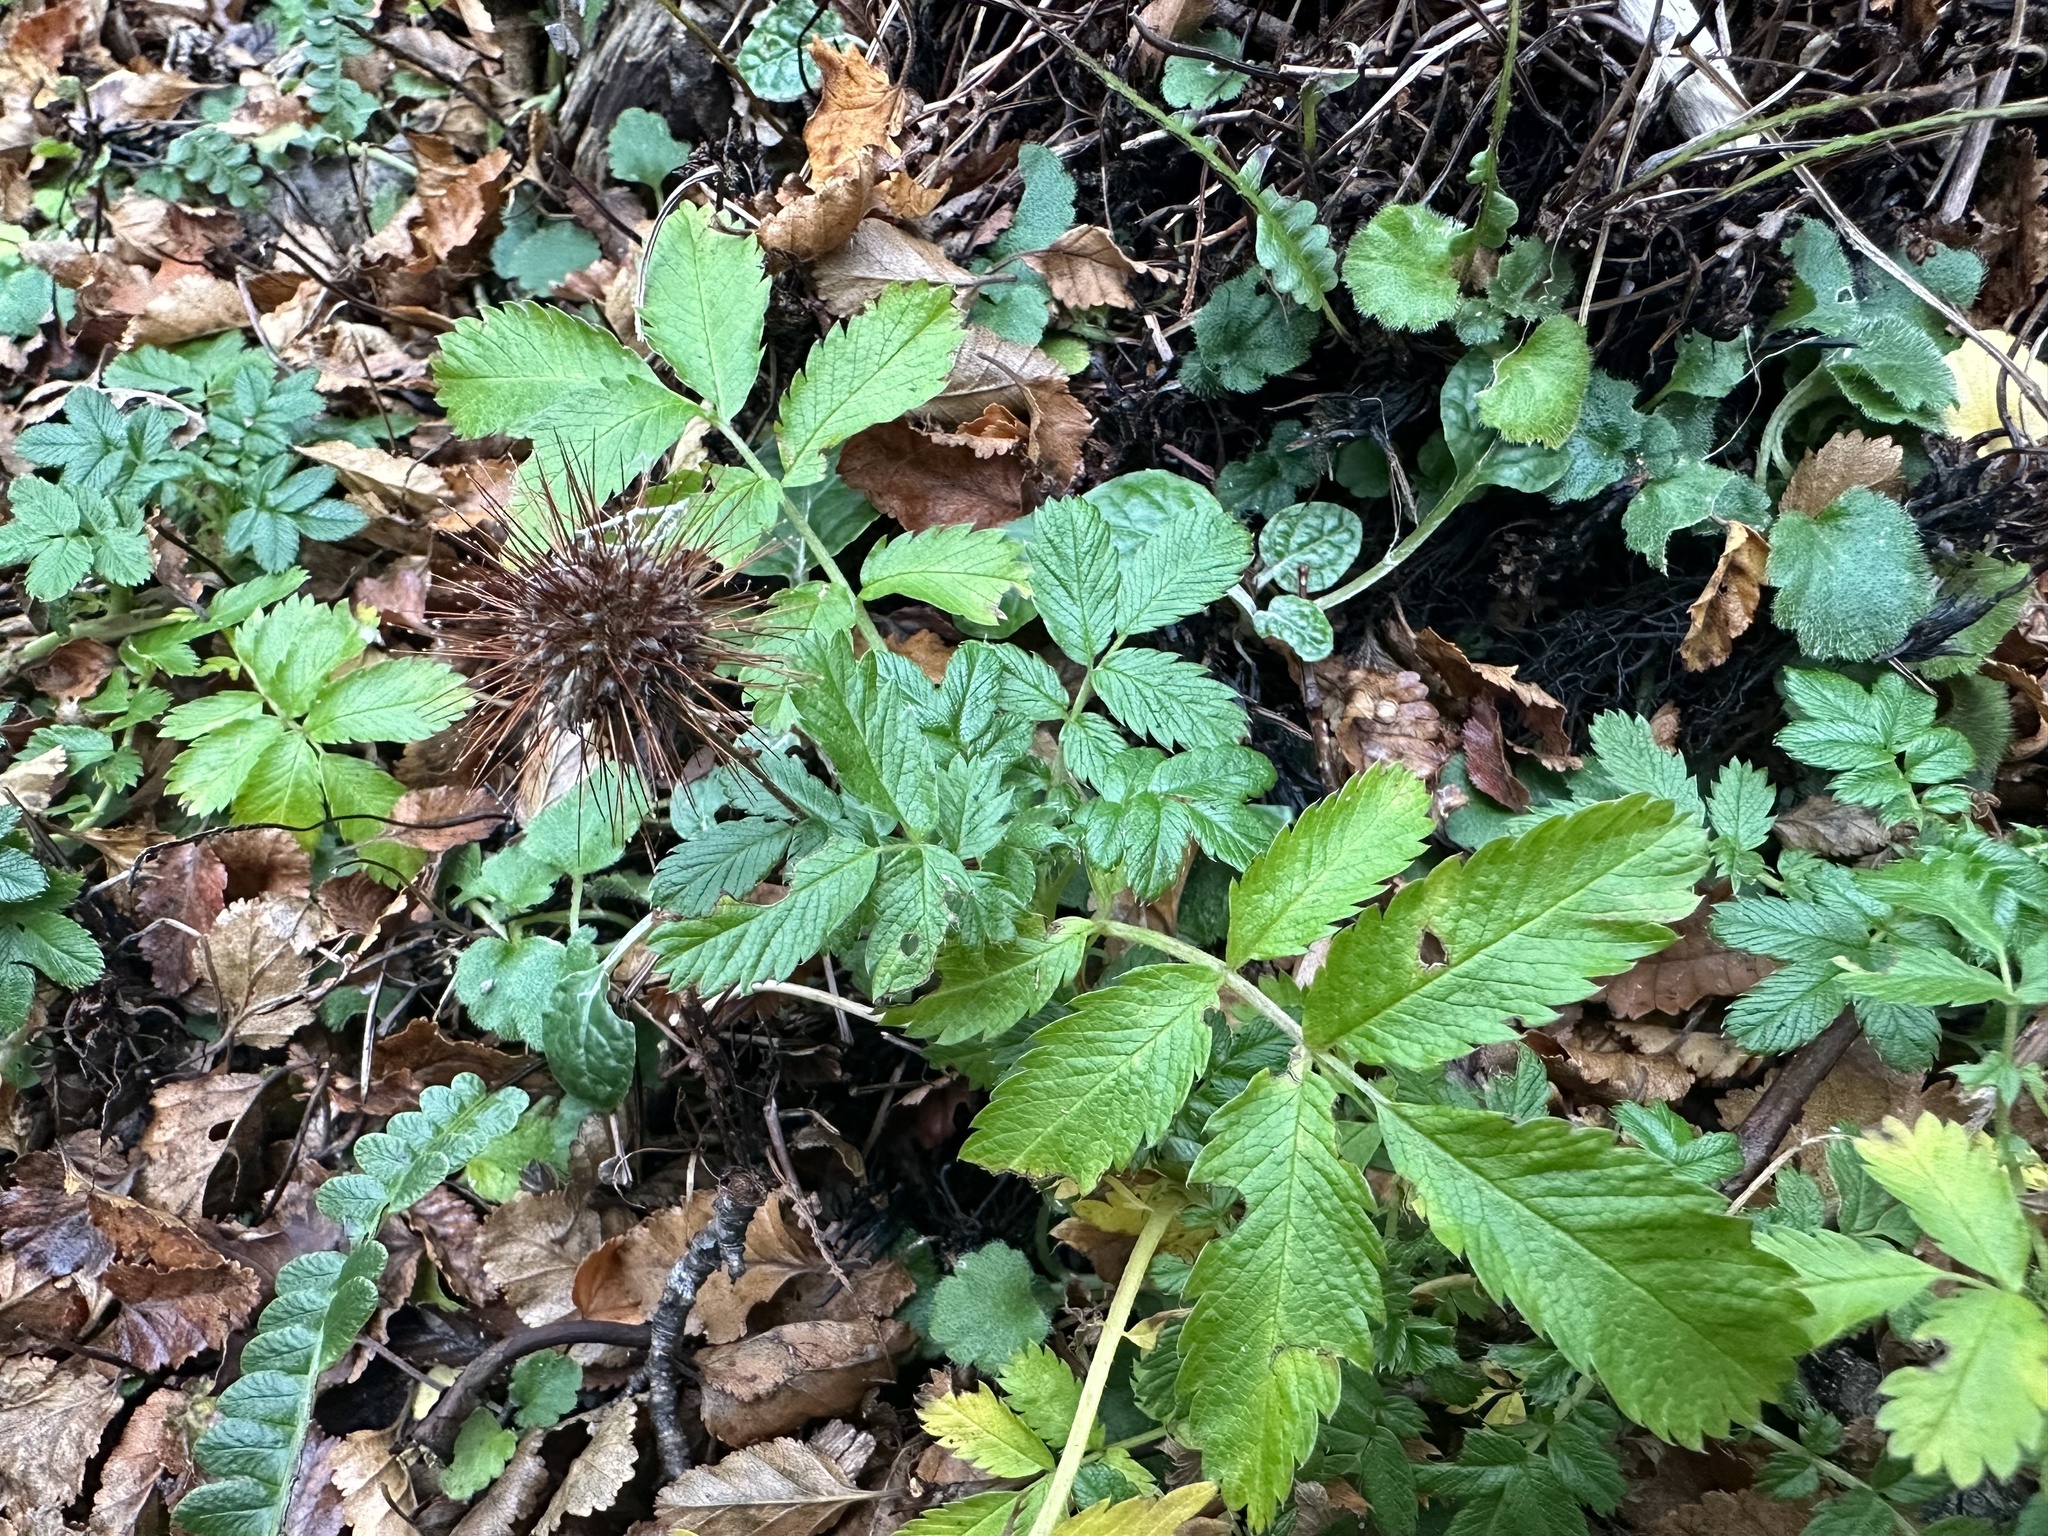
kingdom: Plantae
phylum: Tracheophyta
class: Magnoliopsida
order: Rosales
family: Rosaceae
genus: Acaena
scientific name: Acaena ovalifolia
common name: Two-spined acaena
